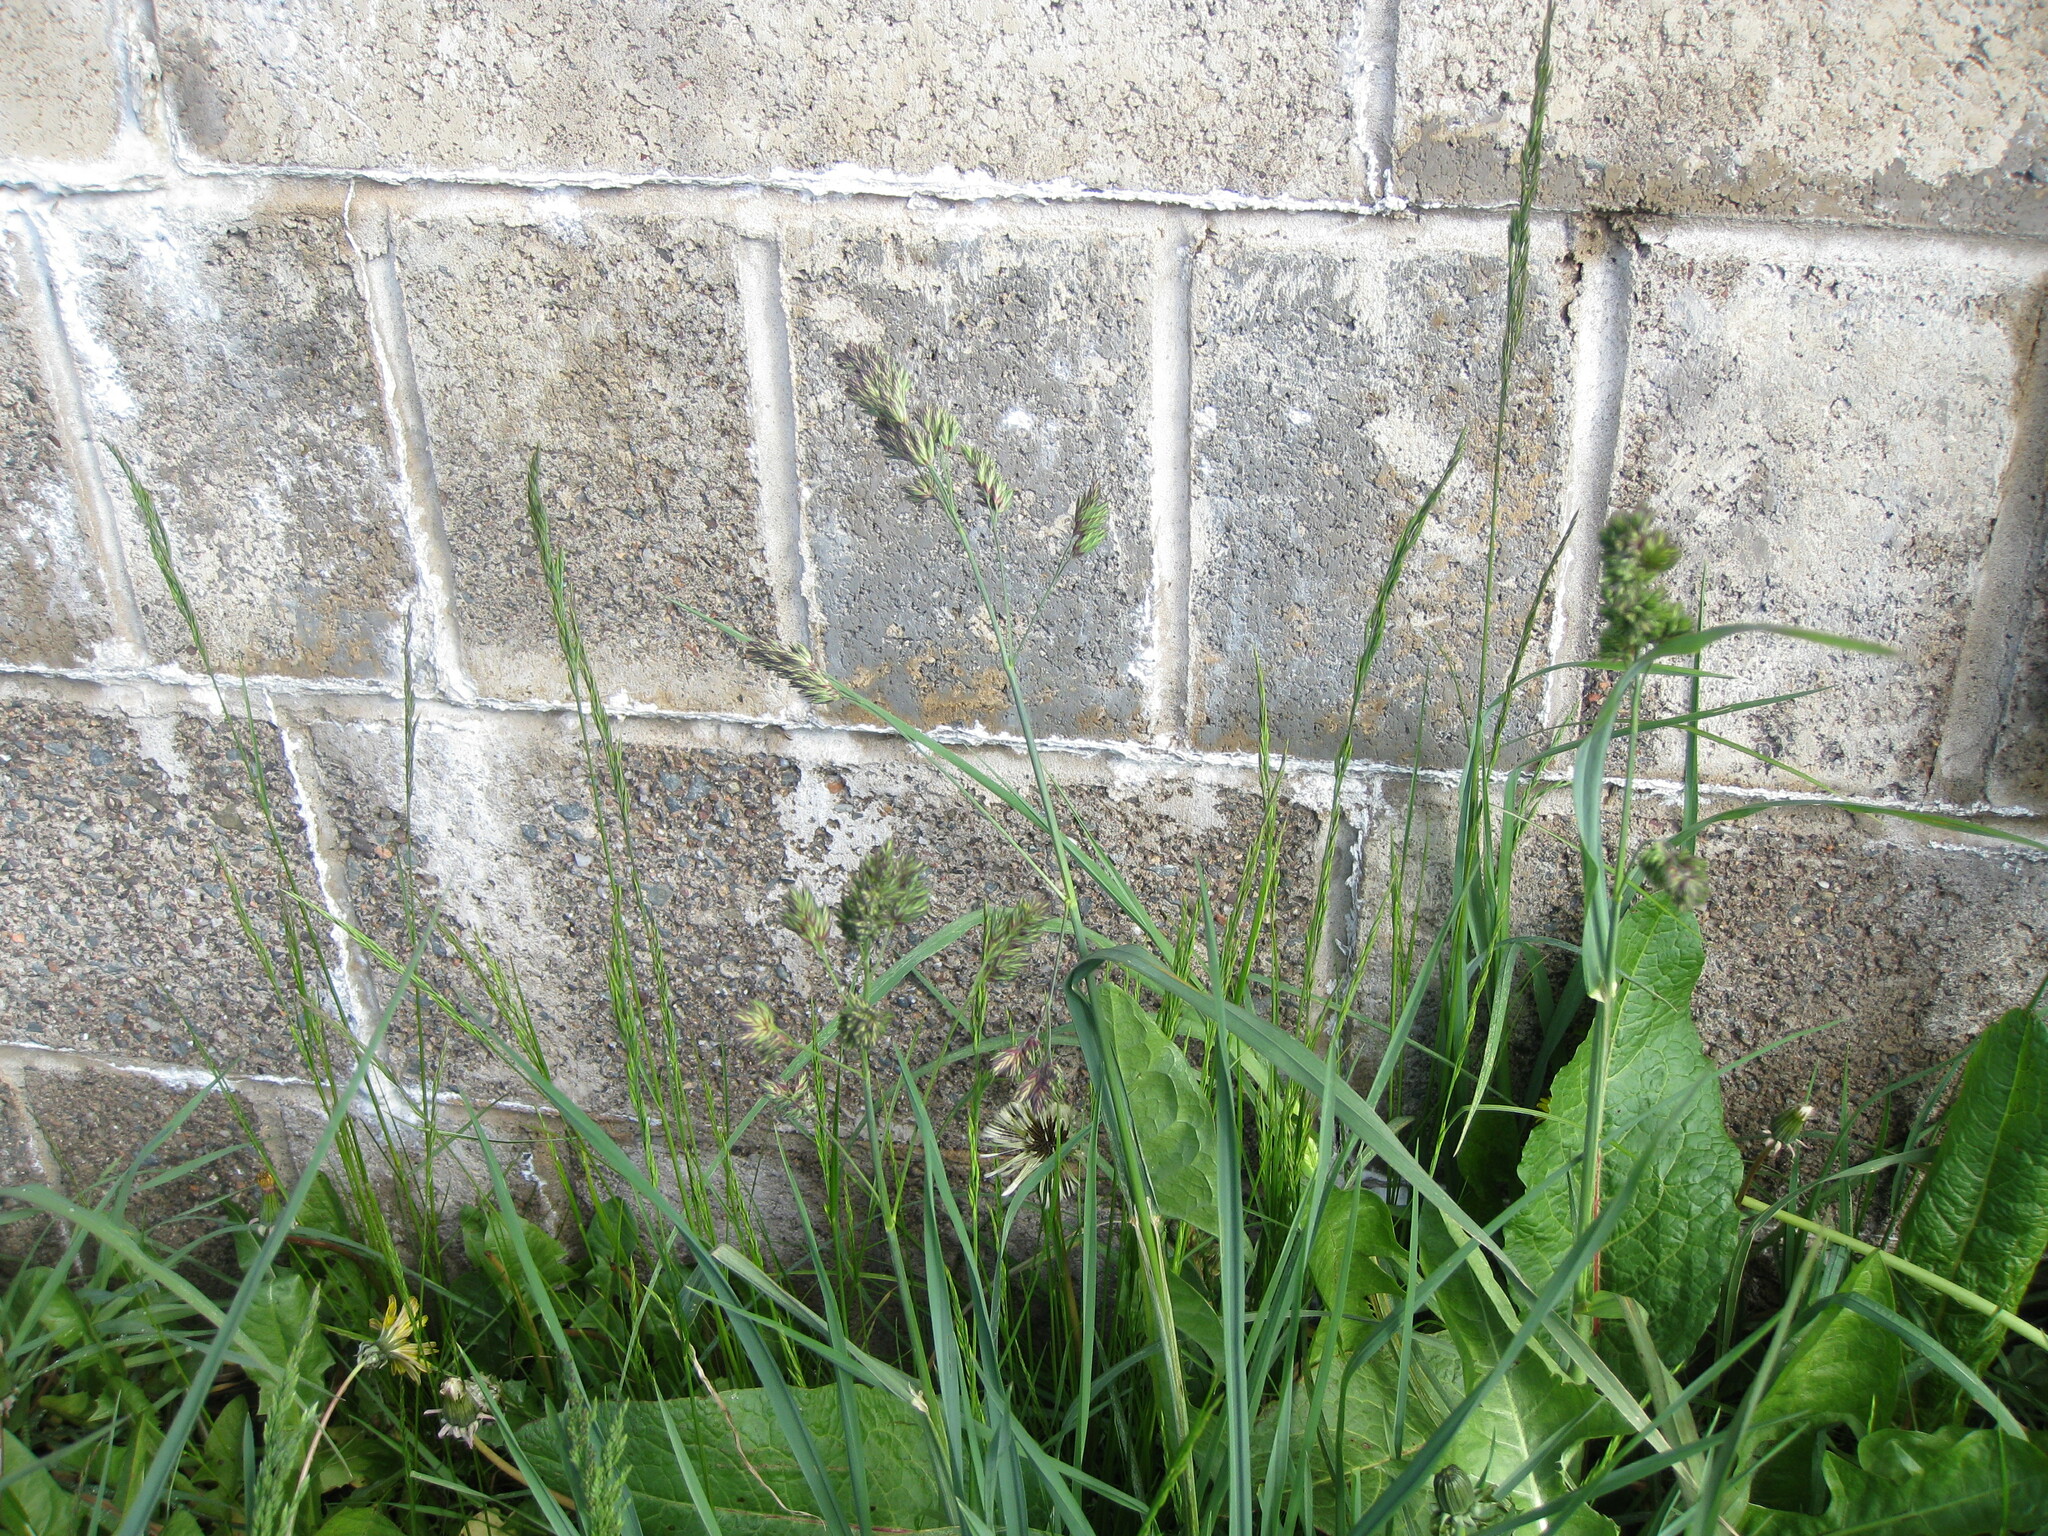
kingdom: Plantae
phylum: Tracheophyta
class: Liliopsida
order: Poales
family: Poaceae
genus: Dactylis
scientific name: Dactylis glomerata
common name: Orchardgrass
